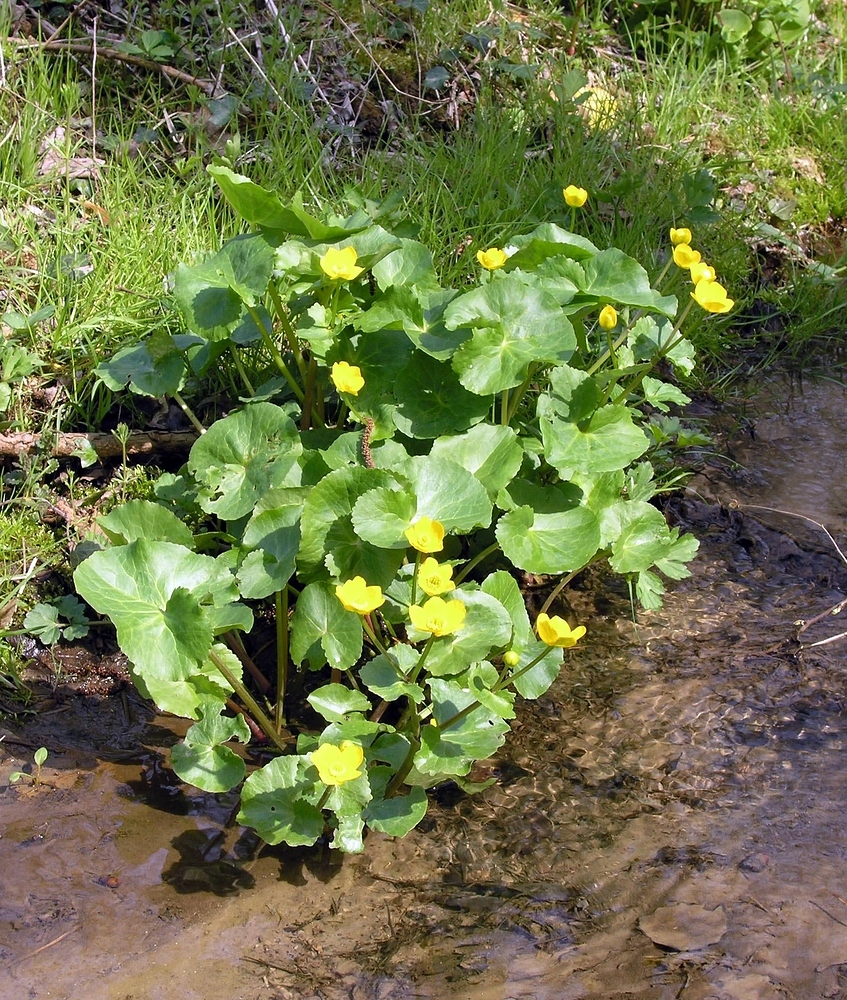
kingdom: Plantae
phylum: Tracheophyta
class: Magnoliopsida
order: Ranunculales
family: Ranunculaceae
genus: Caltha
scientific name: Caltha palustris
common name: Marsh marigold
